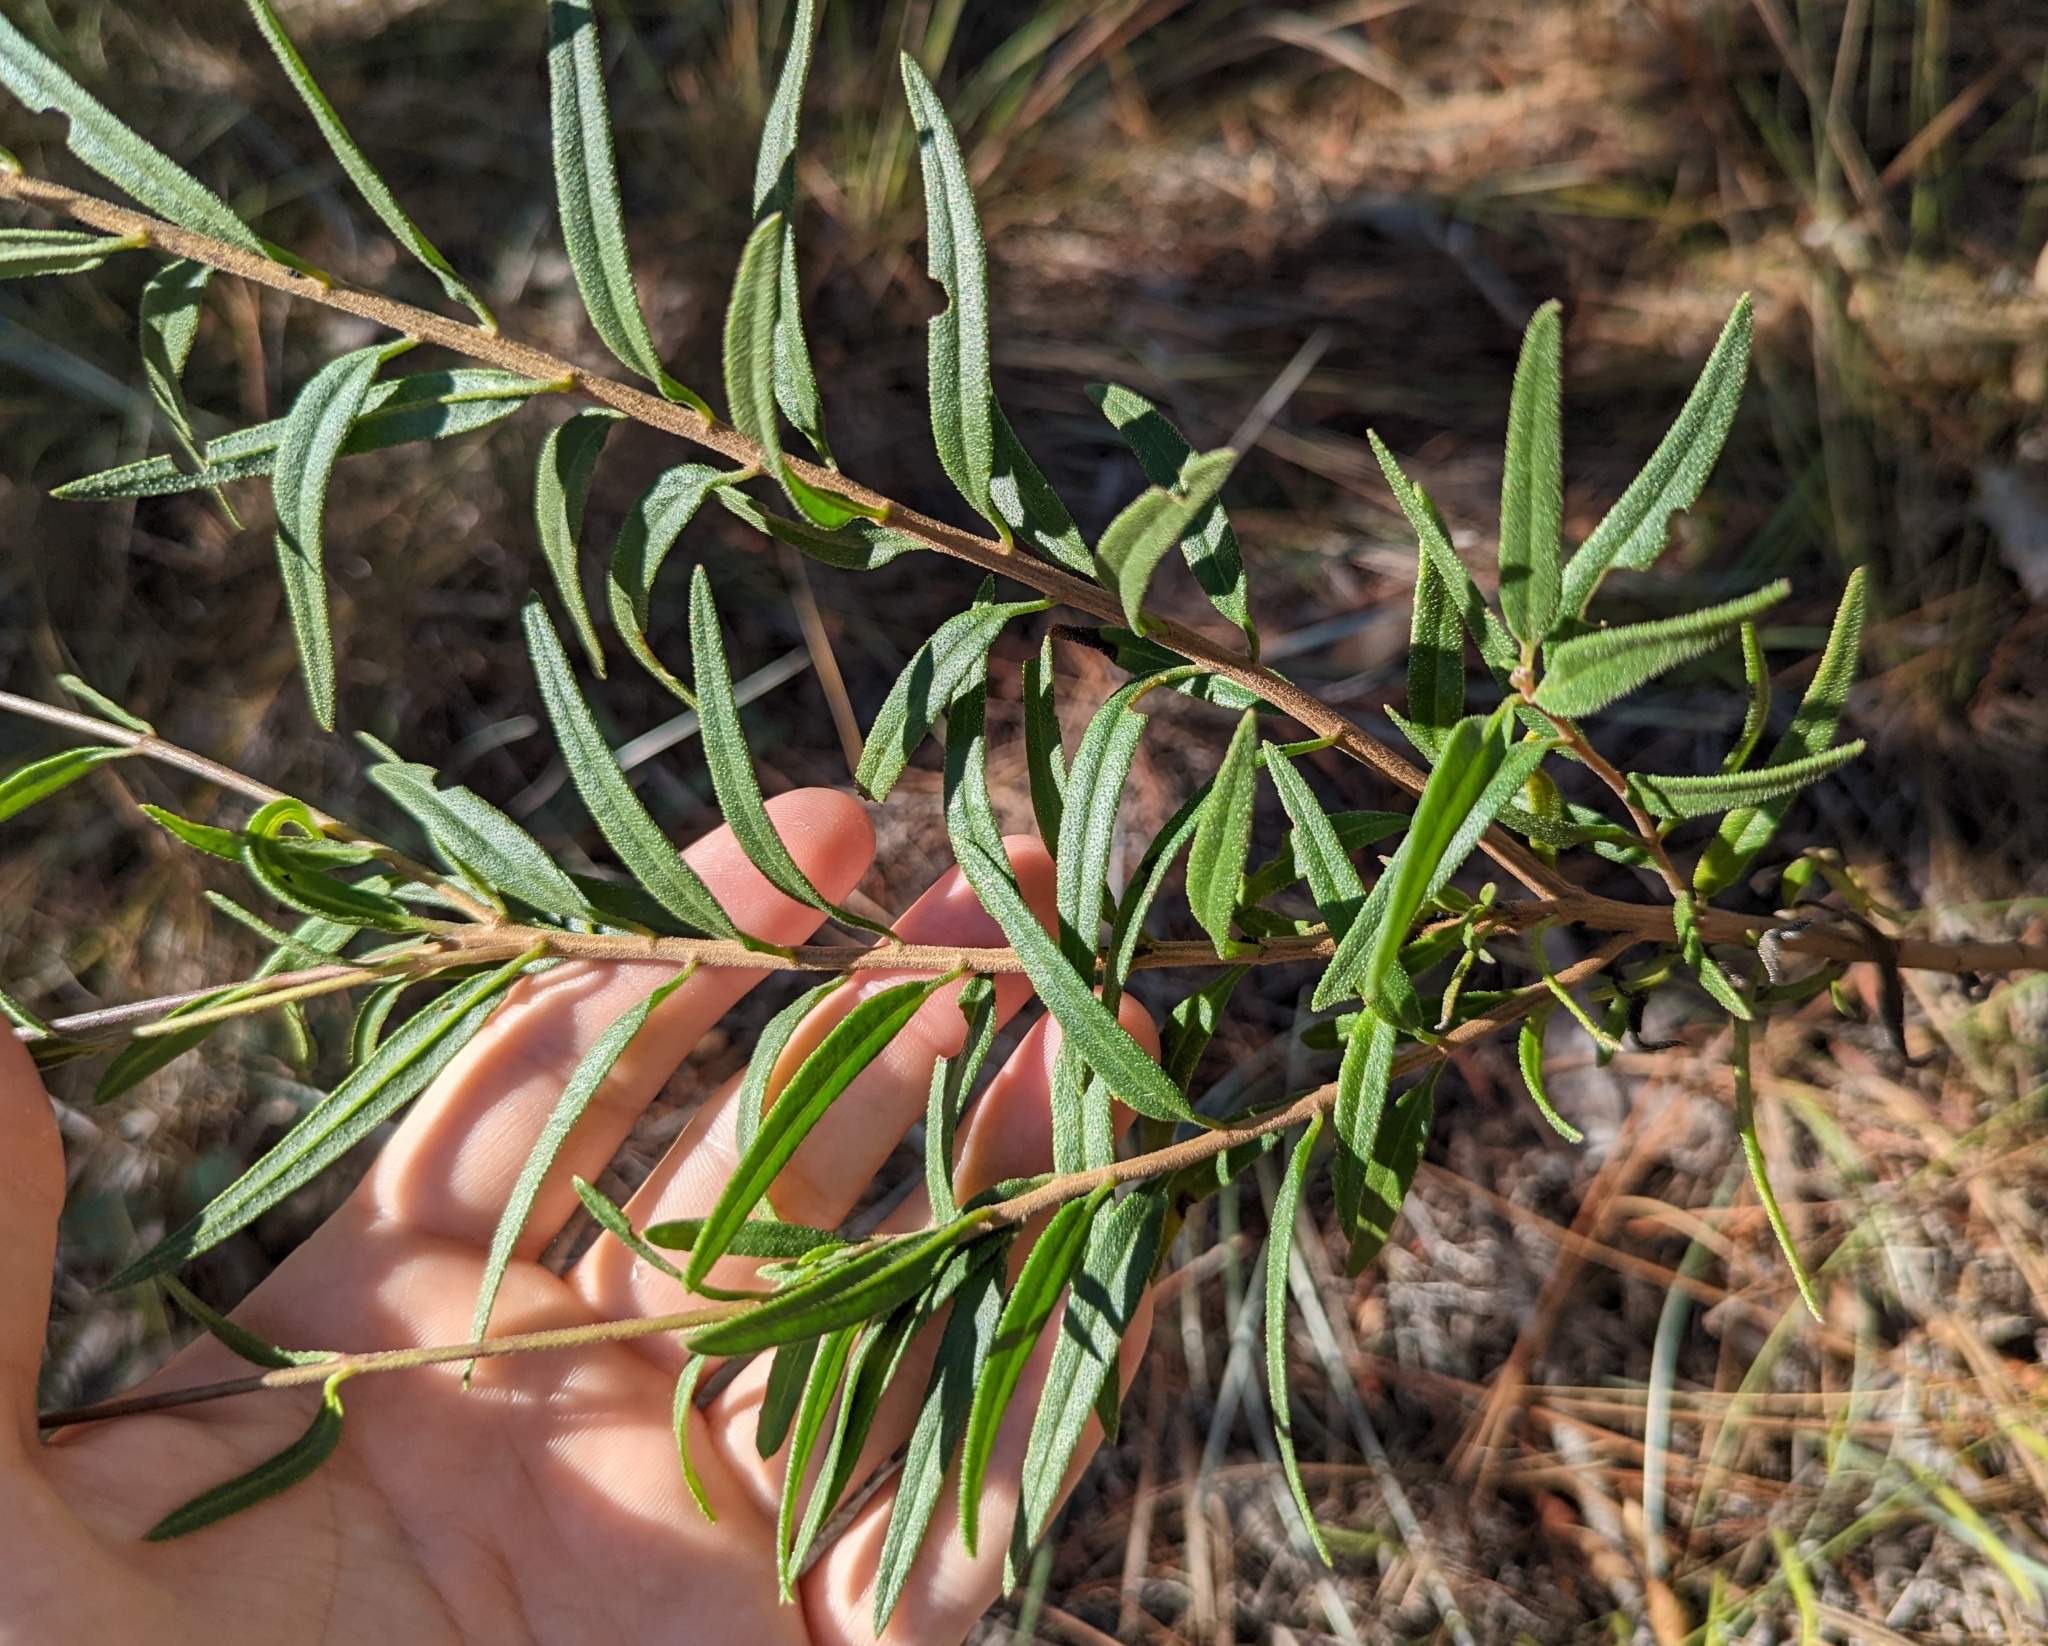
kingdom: Plantae
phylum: Tracheophyta
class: Magnoliopsida
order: Asterales
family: Asteraceae
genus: Palafoxia
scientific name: Palafoxia integrifolia
